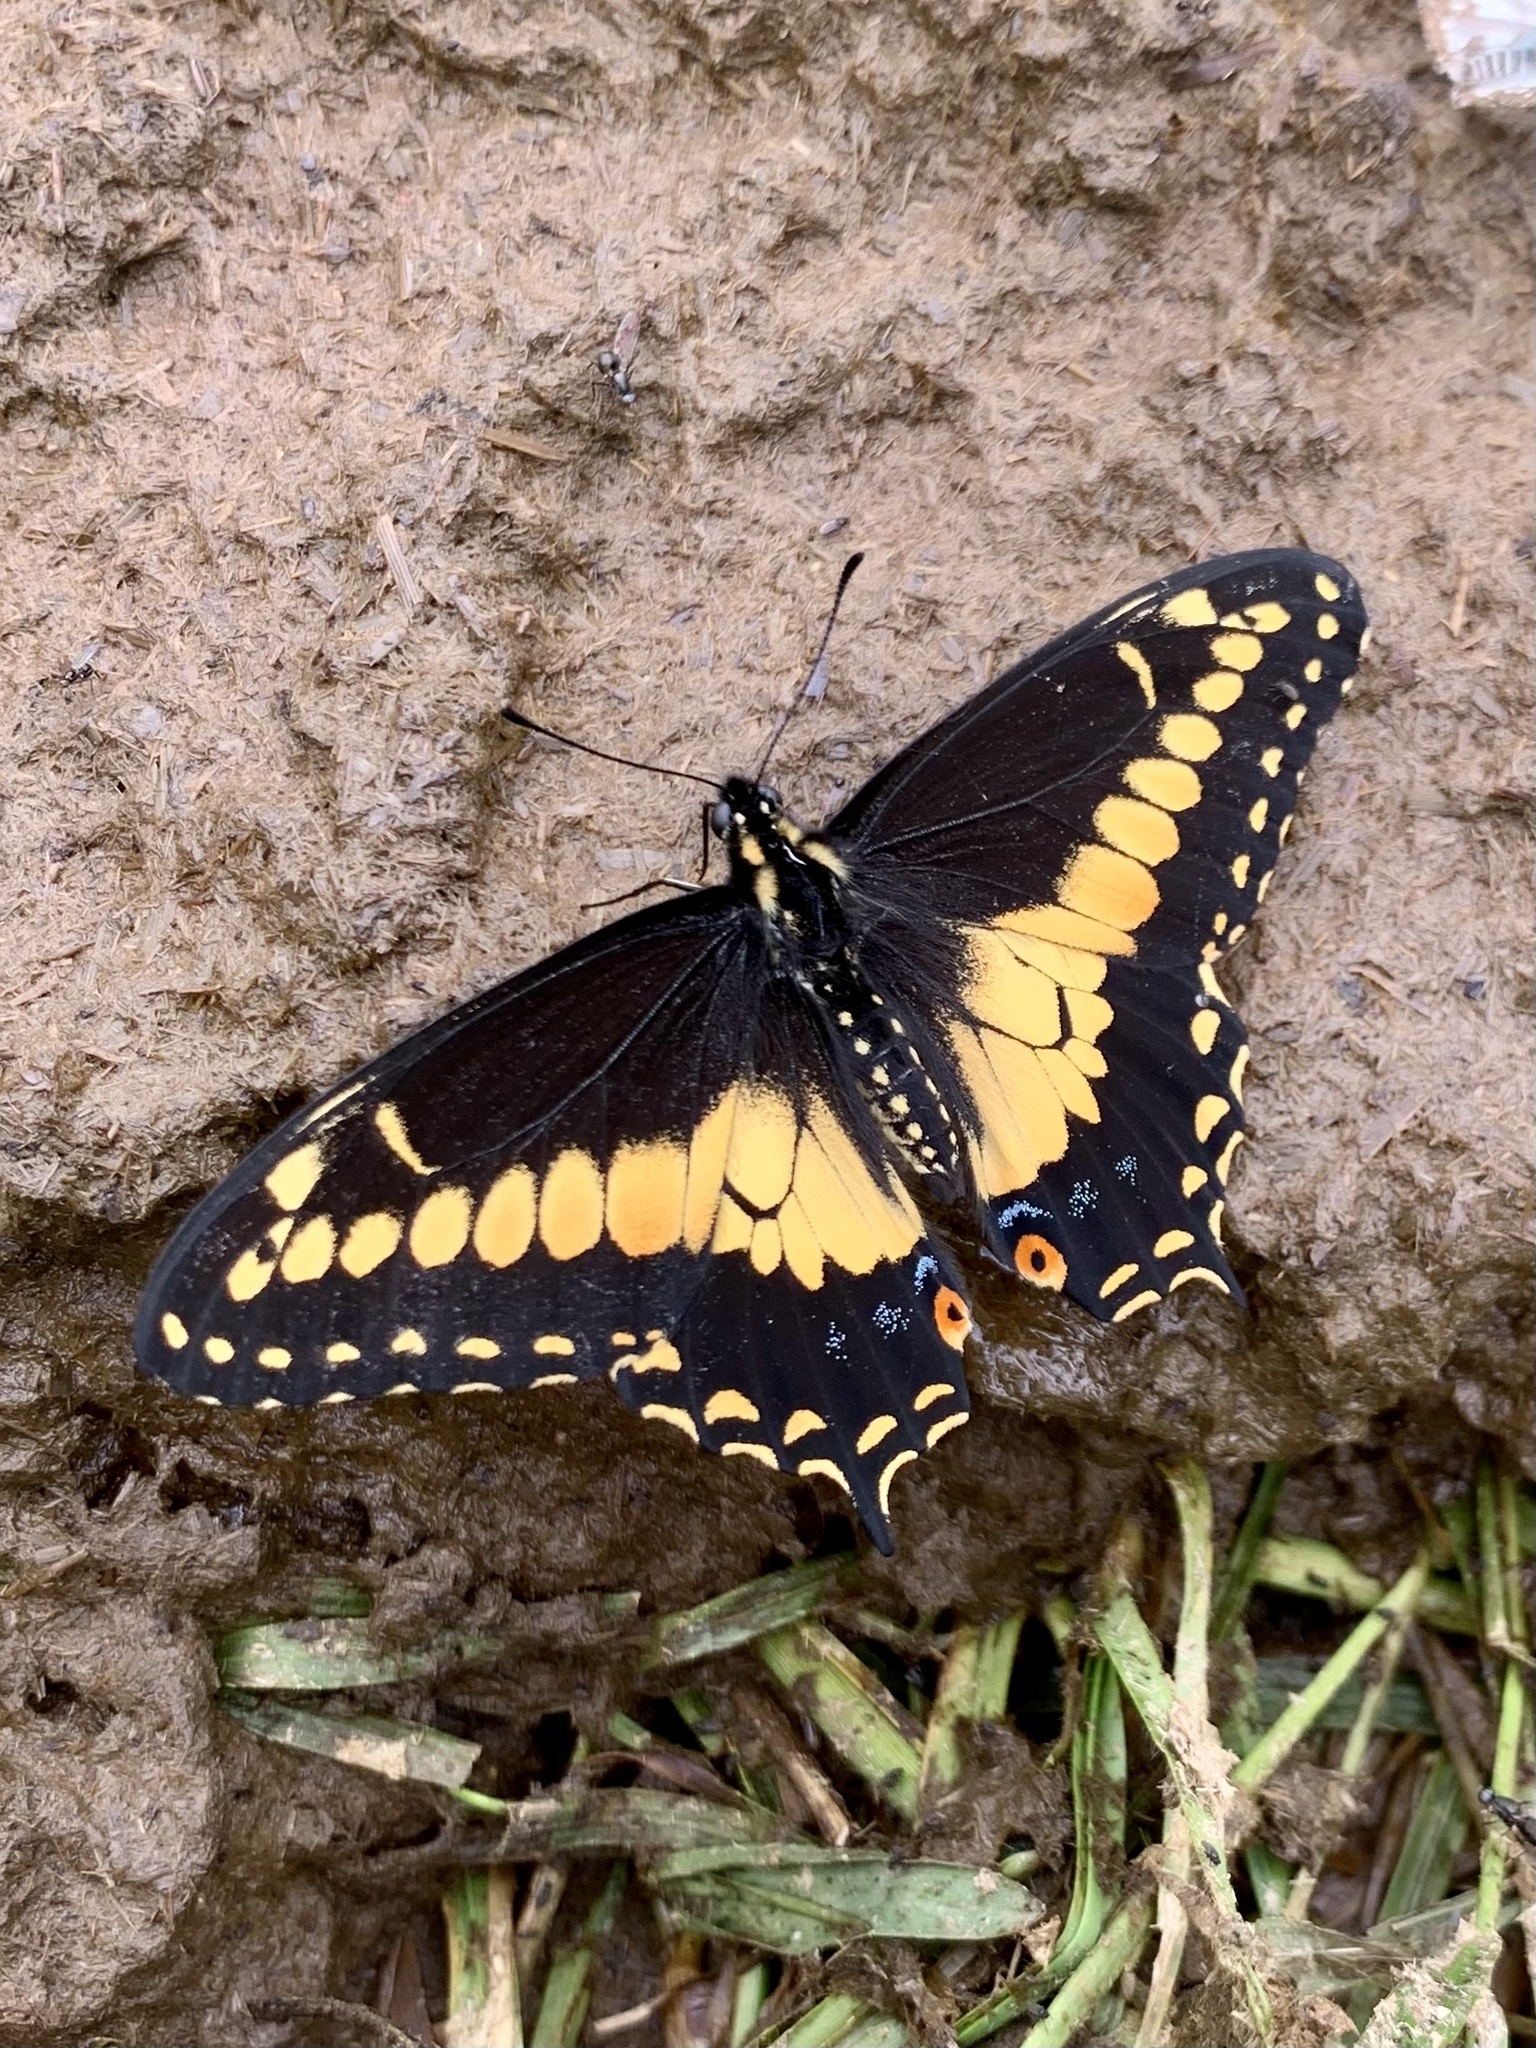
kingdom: Animalia
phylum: Arthropoda
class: Insecta
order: Lepidoptera
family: Papilionidae
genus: Papilio
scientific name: Papilio polyxenes
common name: Black swallowtail
